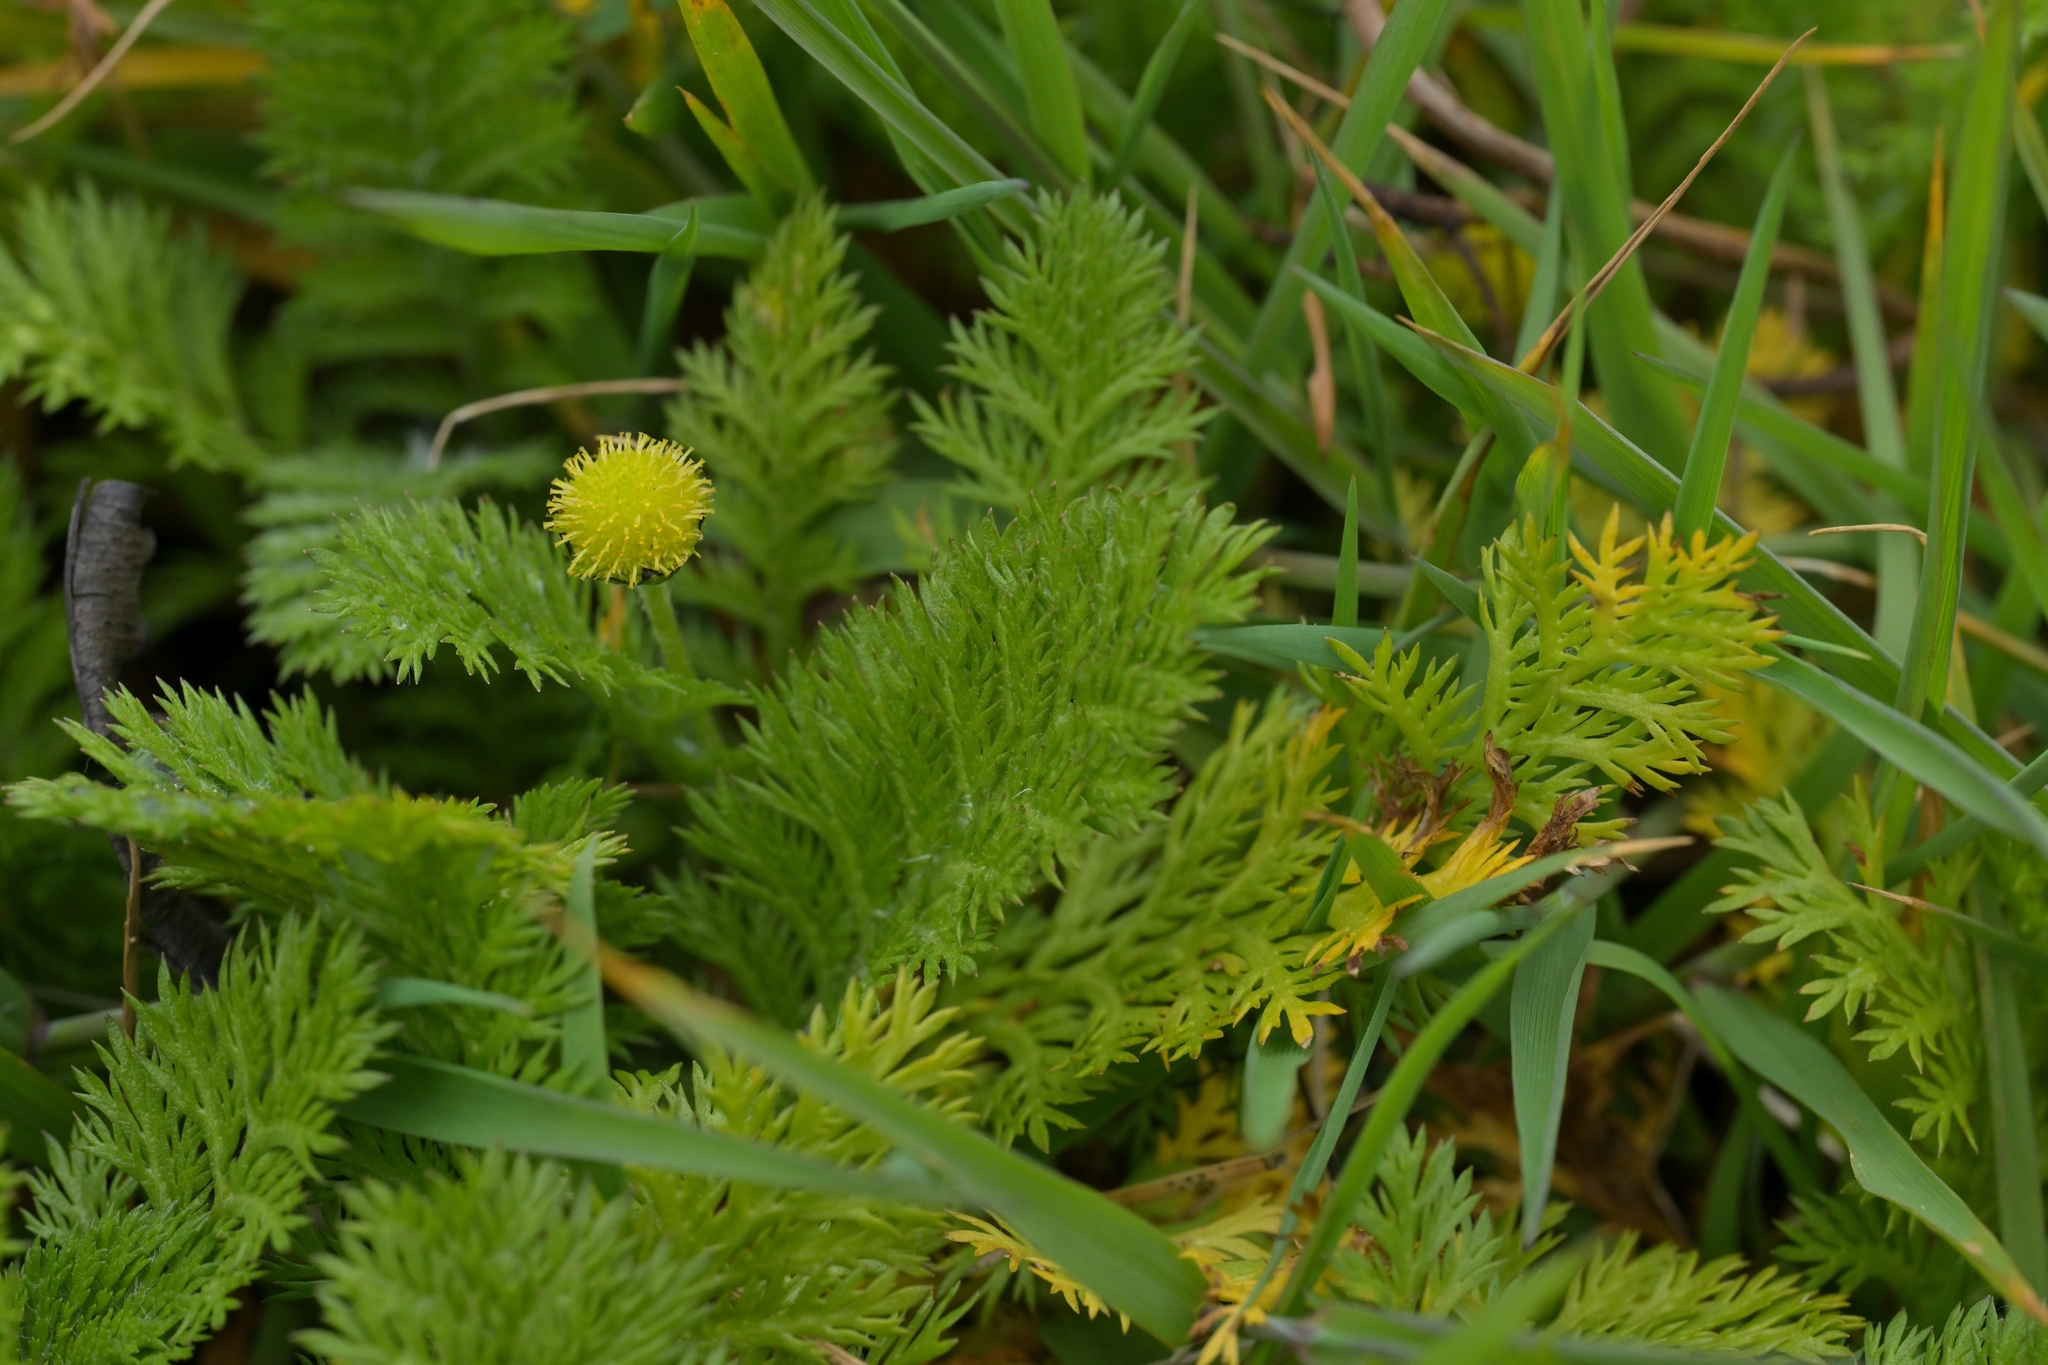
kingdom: Plantae
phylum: Tracheophyta
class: Magnoliopsida
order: Asterales
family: Asteraceae
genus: Leptinella
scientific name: Leptinella plumosa
